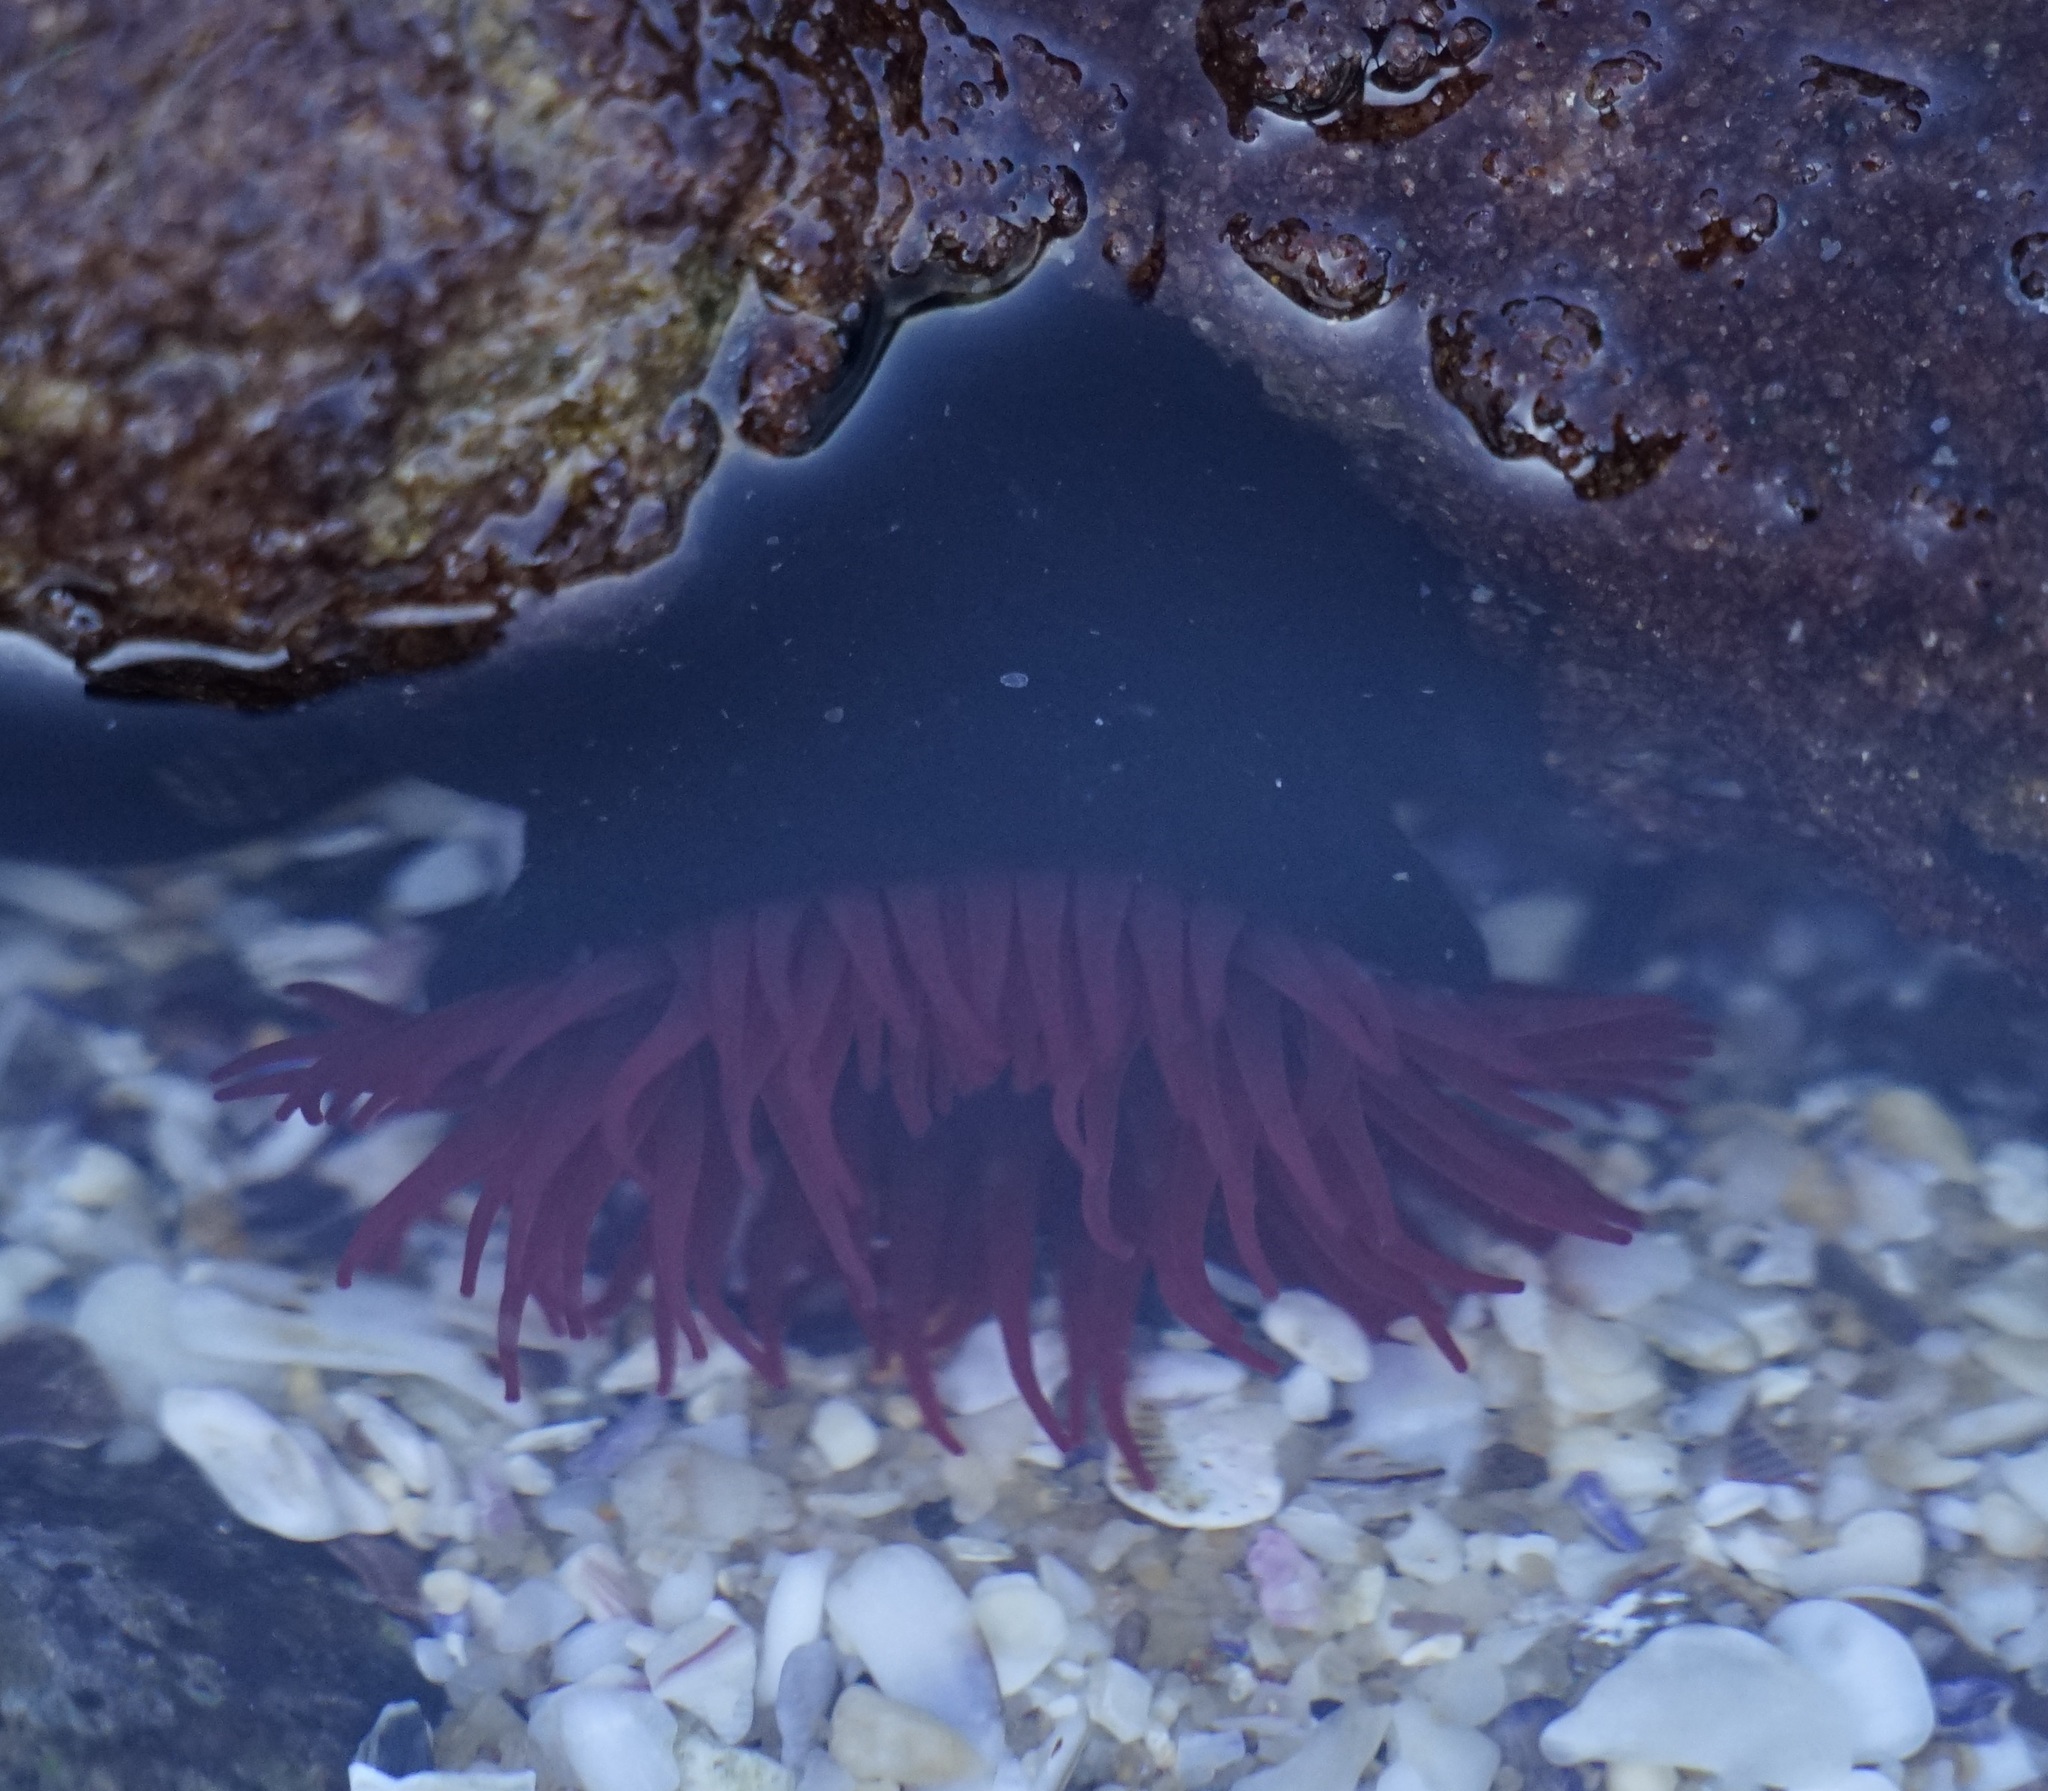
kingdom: Animalia
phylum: Cnidaria
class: Anthozoa
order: Actiniaria
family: Actiniidae
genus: Actinia
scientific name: Actinia tenebrosa
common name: Waratah anemone
